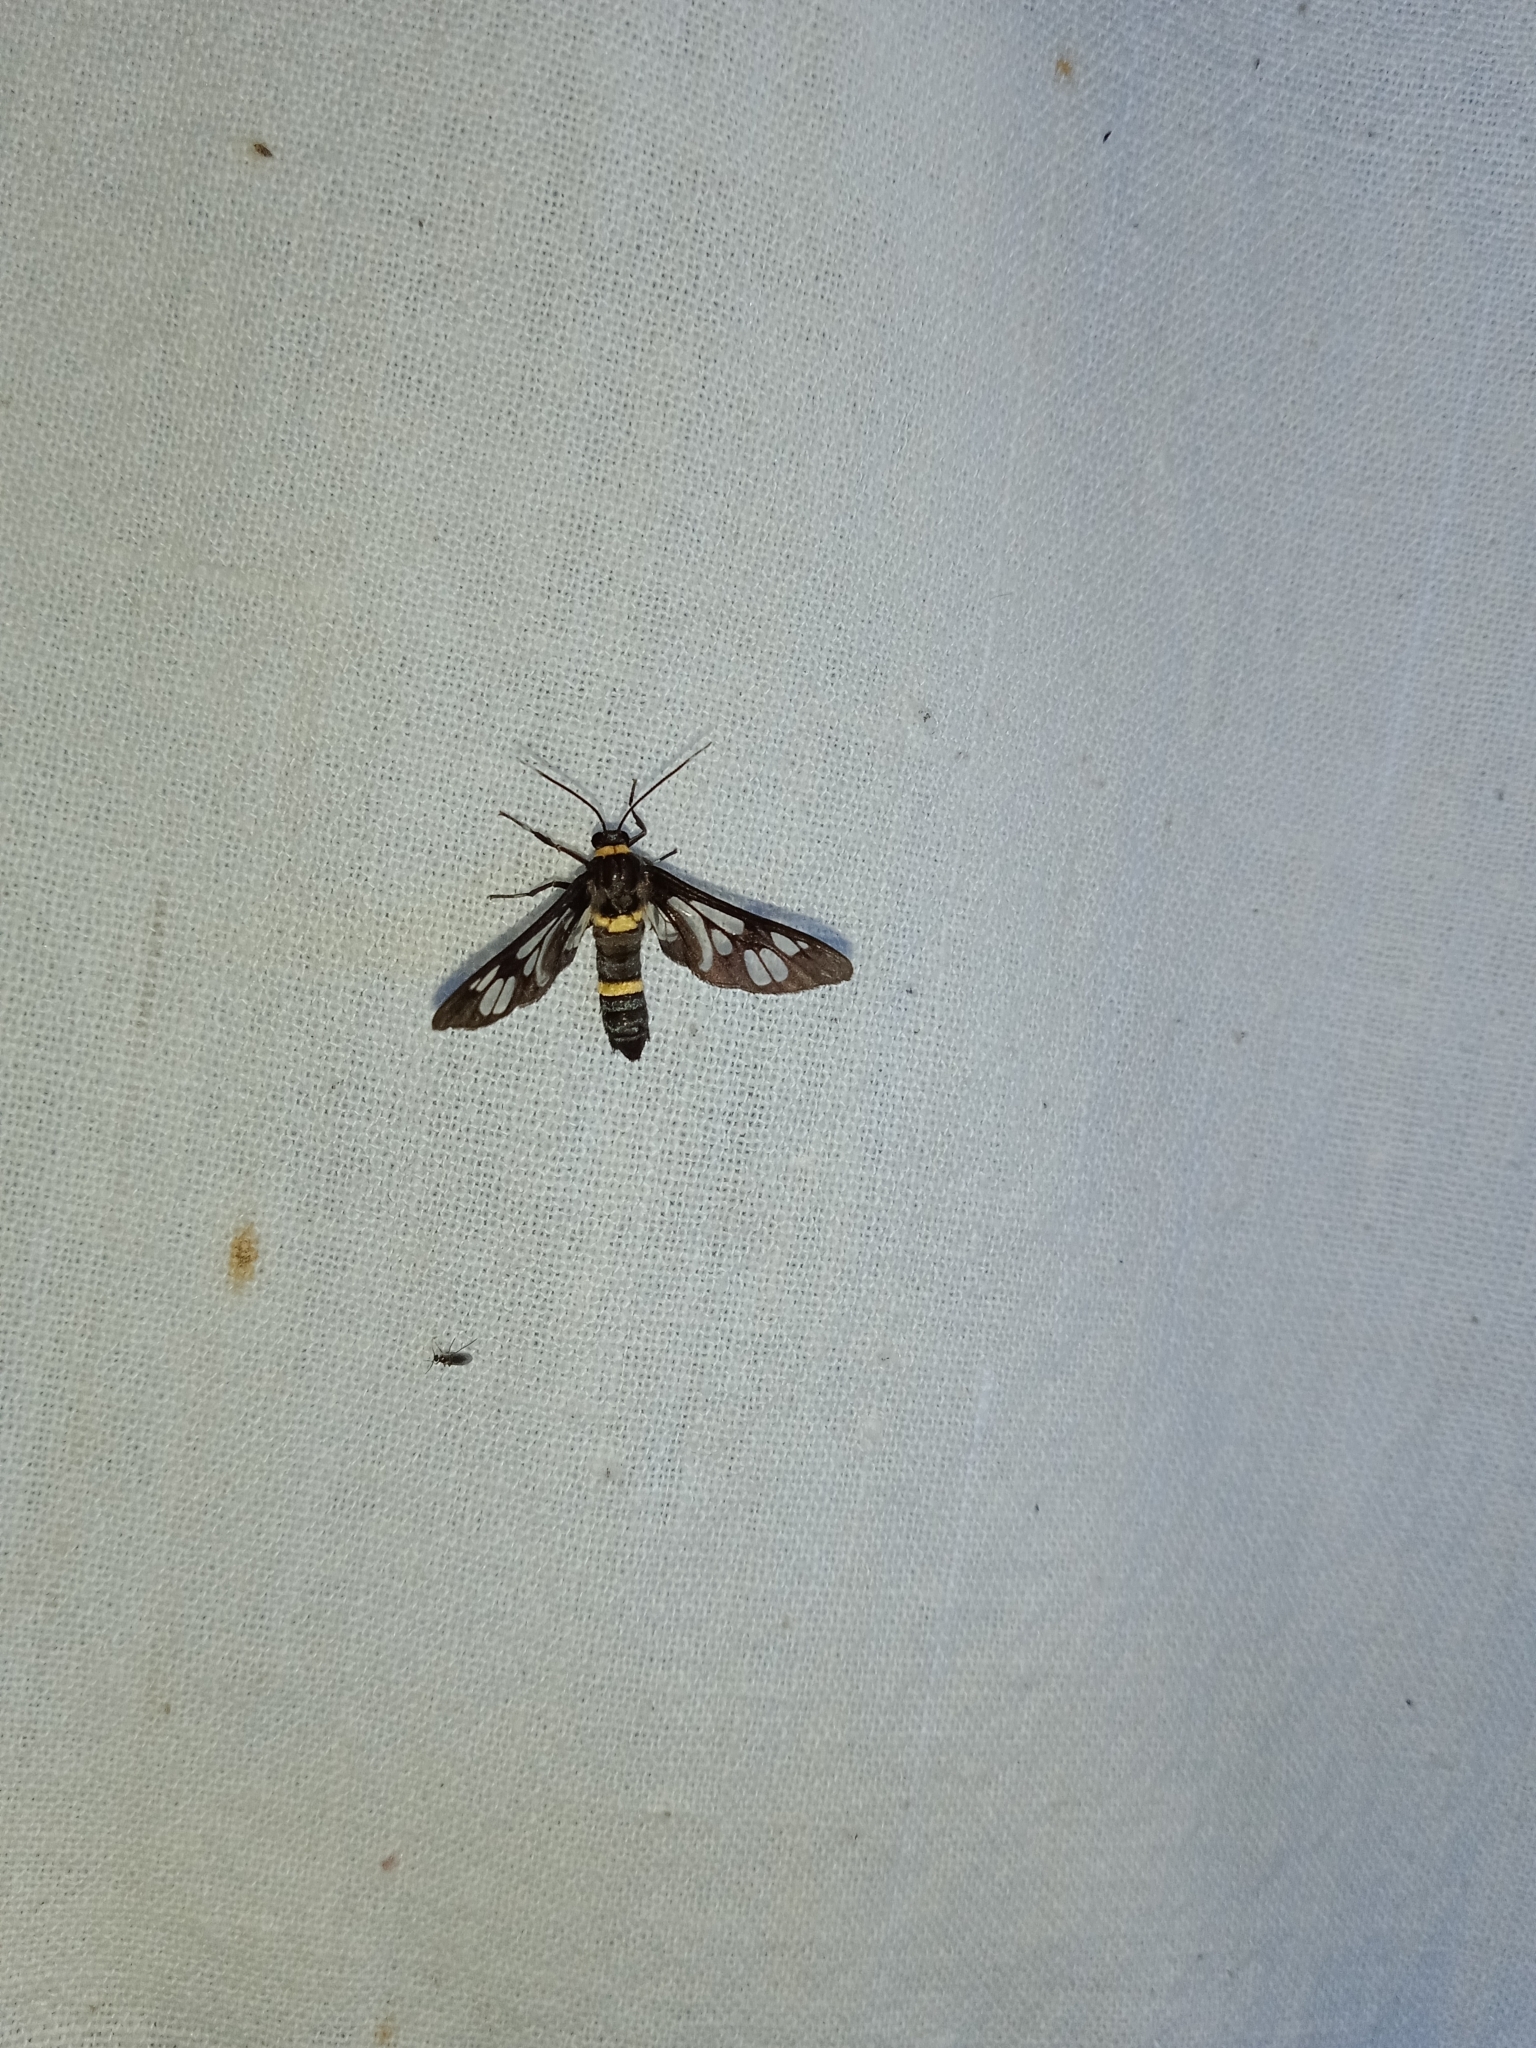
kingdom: Animalia
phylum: Arthropoda
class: Insecta
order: Lepidoptera
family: Erebidae
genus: Syntomoides
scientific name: Syntomoides imaon
